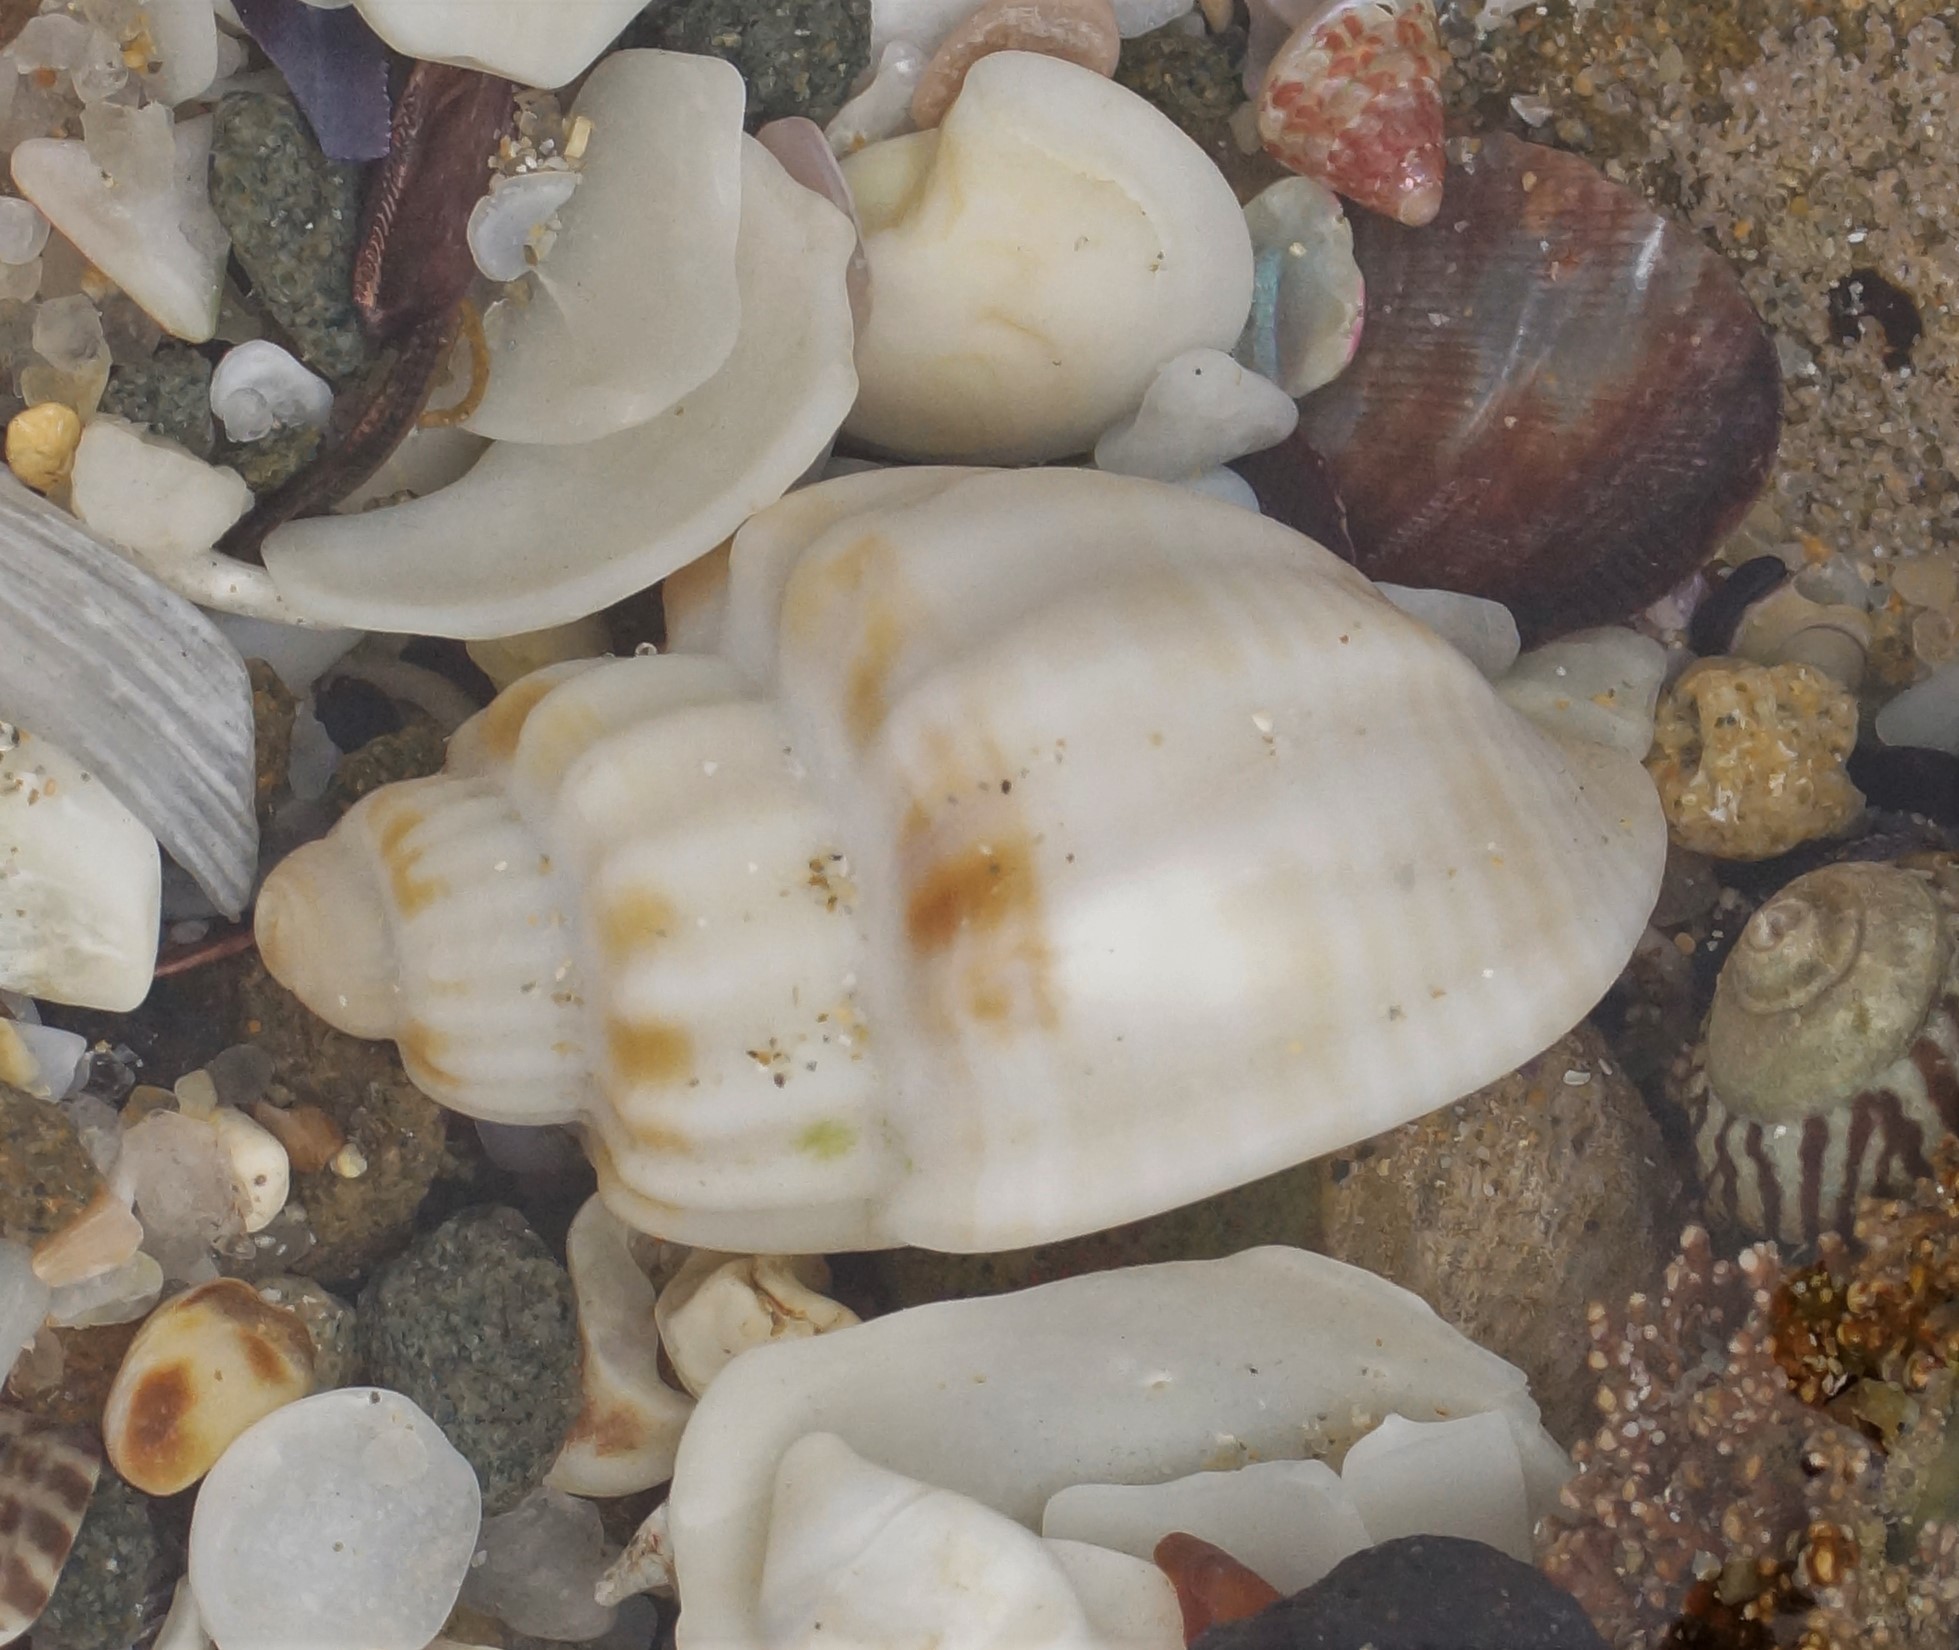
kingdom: Animalia
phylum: Mollusca
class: Gastropoda
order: Neogastropoda
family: Cancellariidae
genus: Merica
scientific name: Merica undulata
